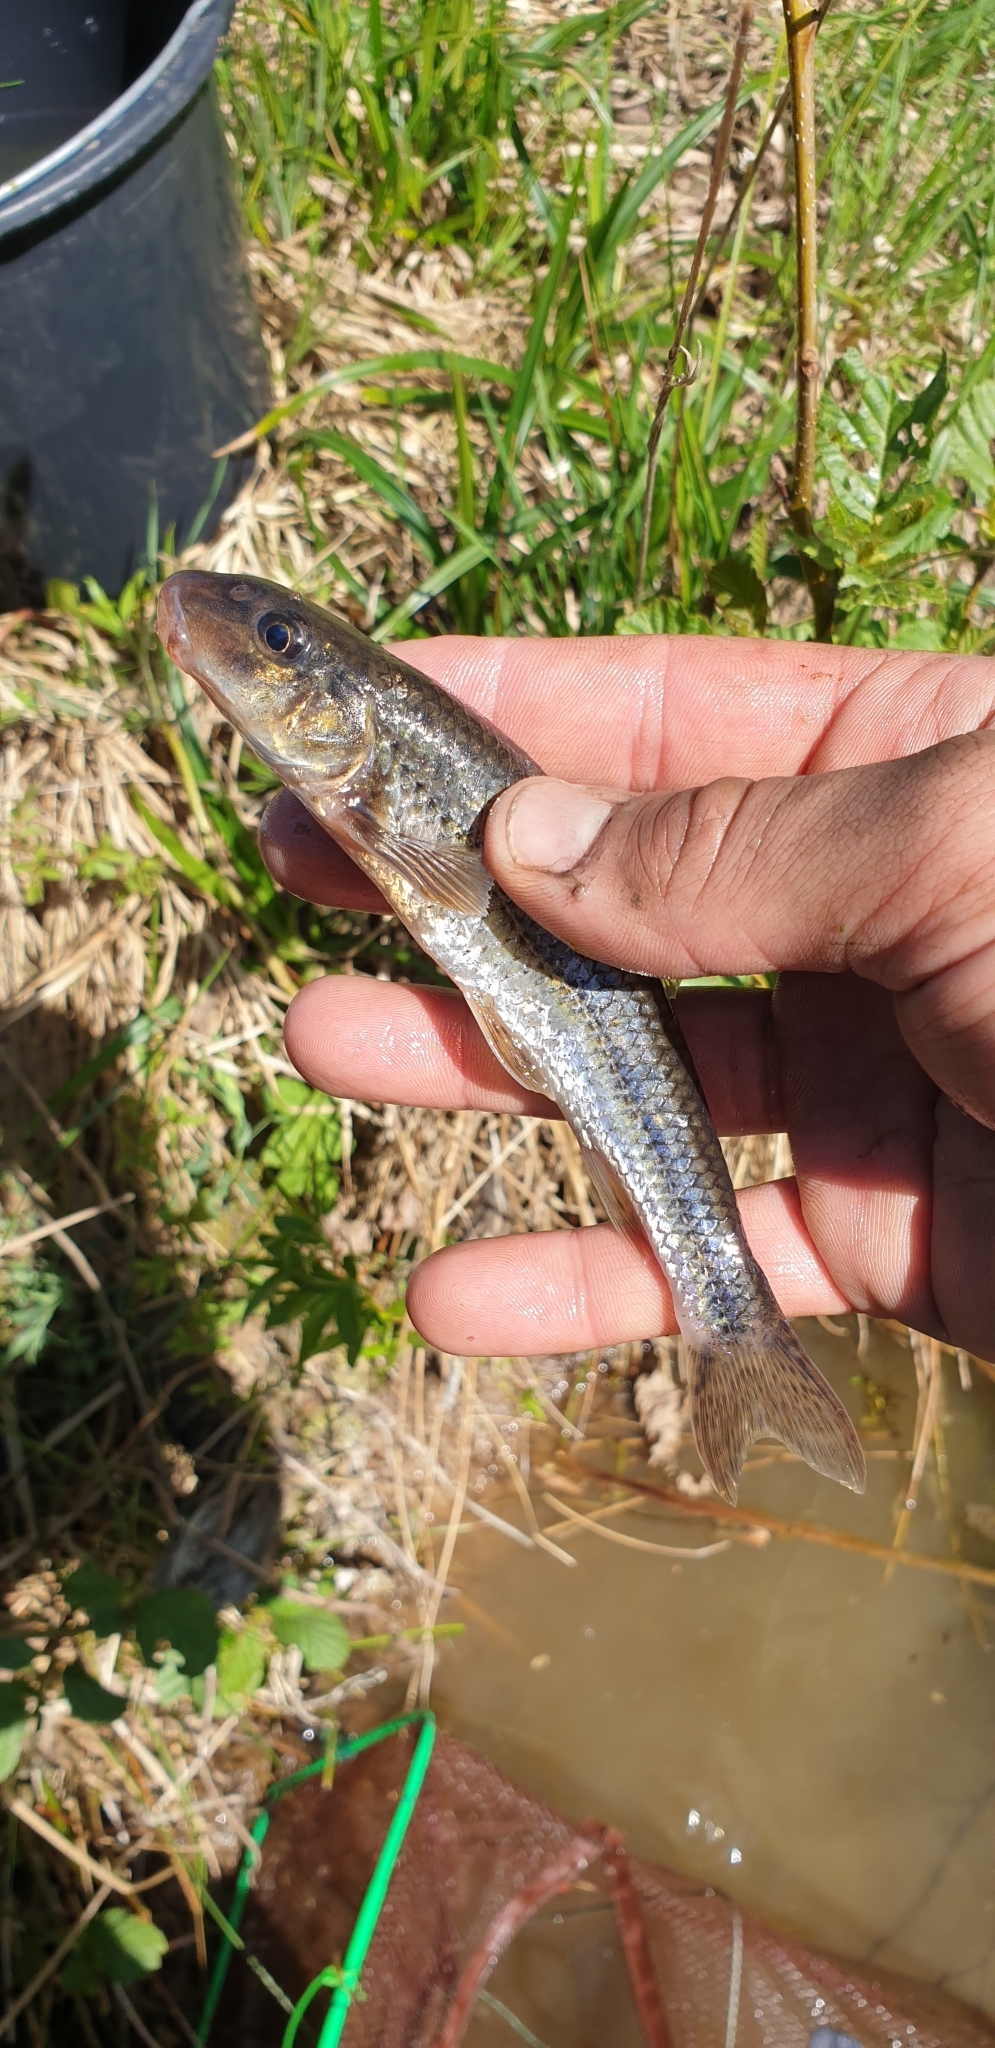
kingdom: Animalia
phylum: Chordata
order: Cypriniformes
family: Cyprinidae
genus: Gobio
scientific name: Gobio gobio
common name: Gudgeon
